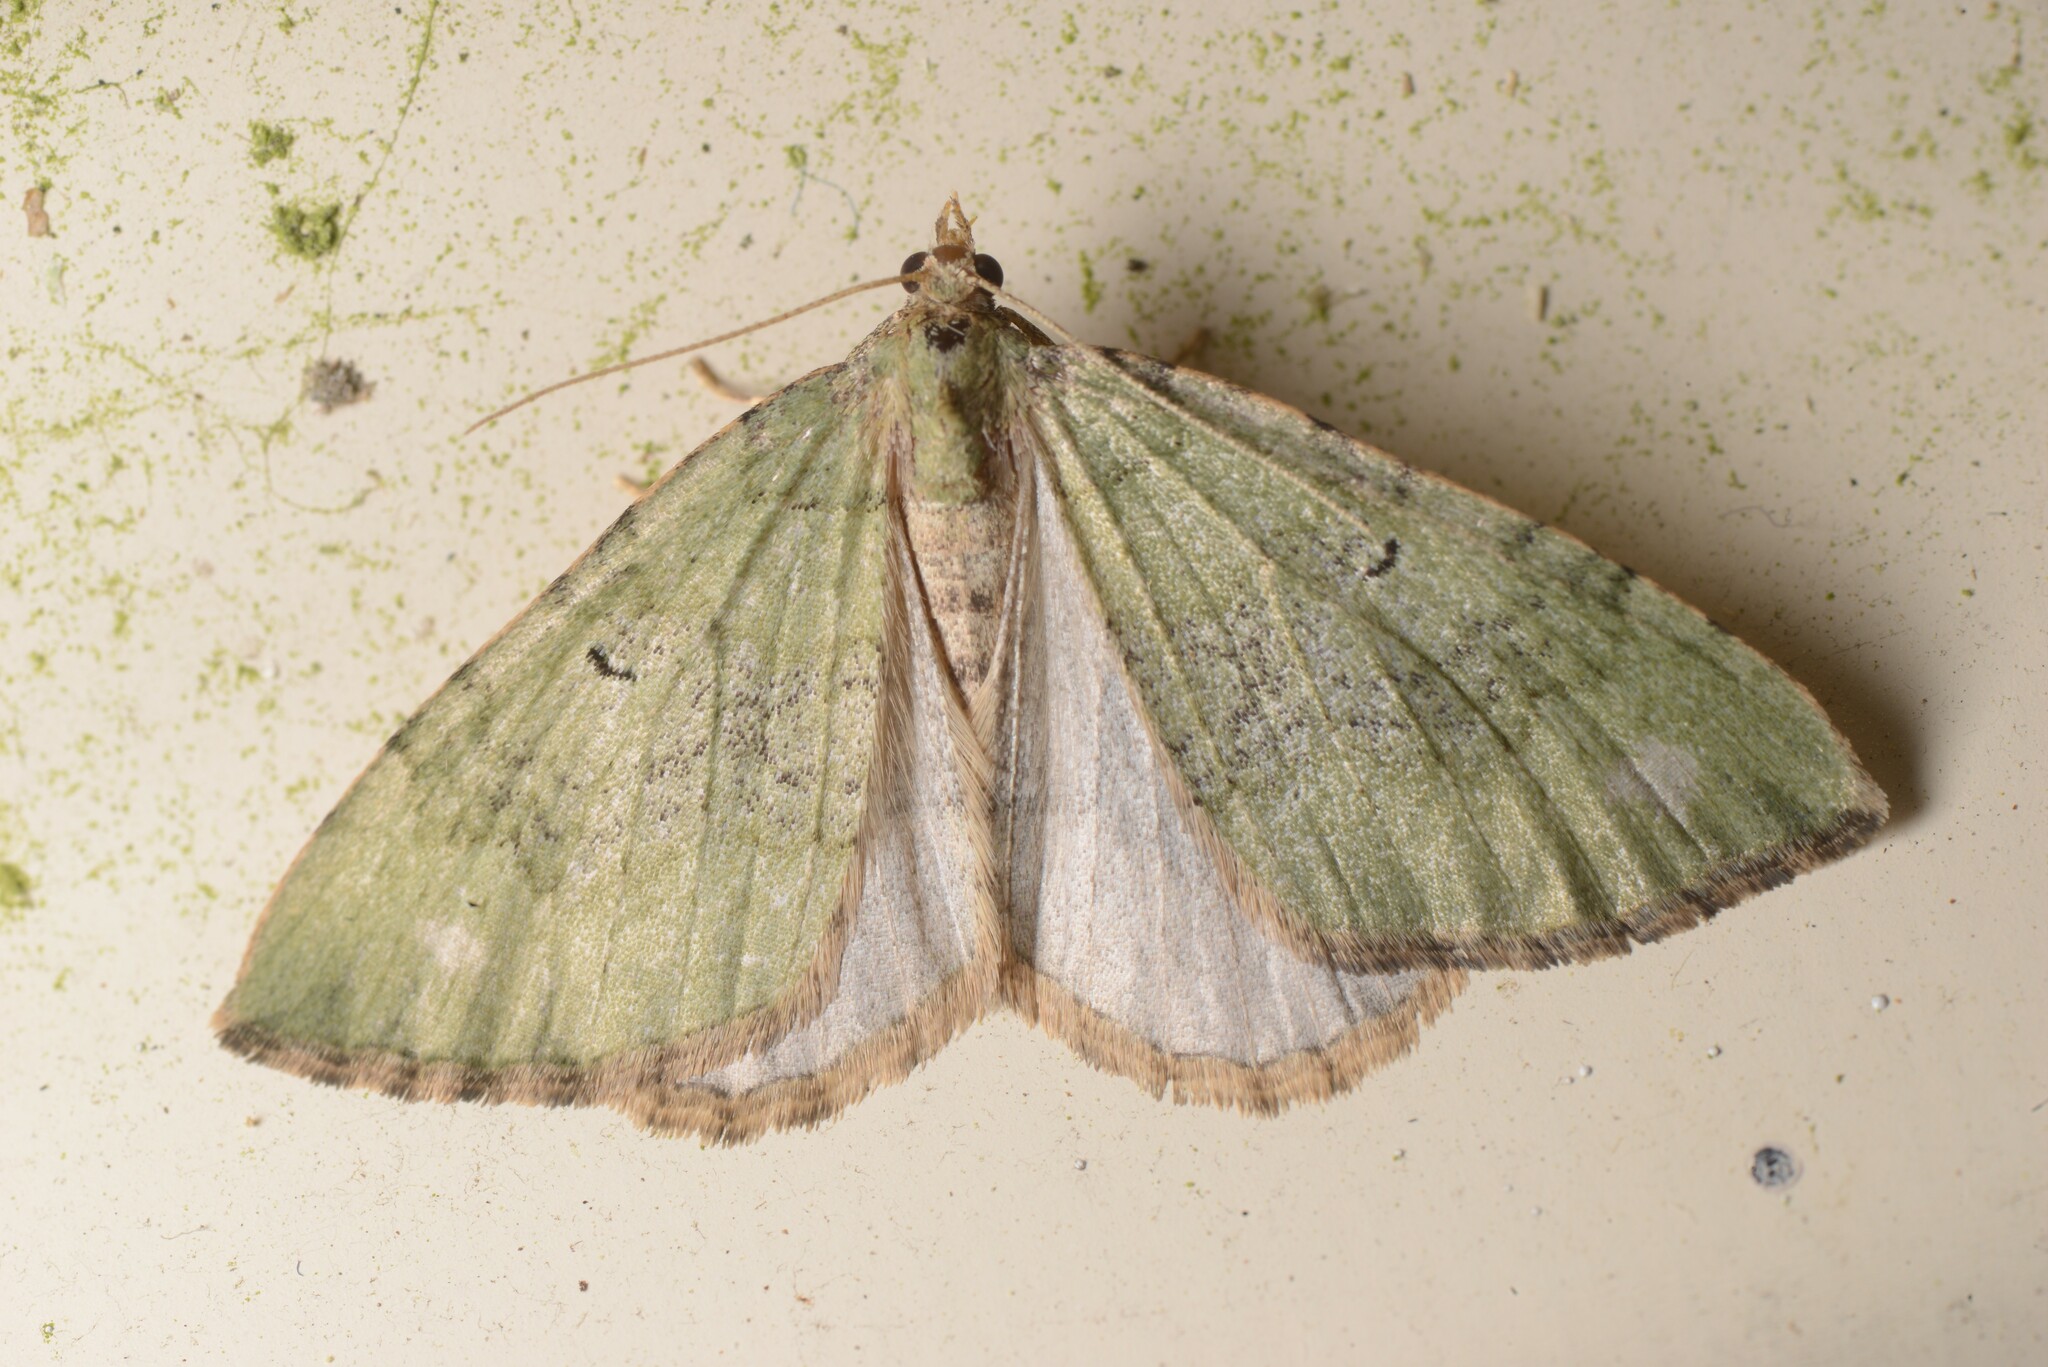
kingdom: Animalia
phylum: Arthropoda
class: Insecta
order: Lepidoptera
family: Geometridae
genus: Epyaxa
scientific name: Epyaxa rosearia
